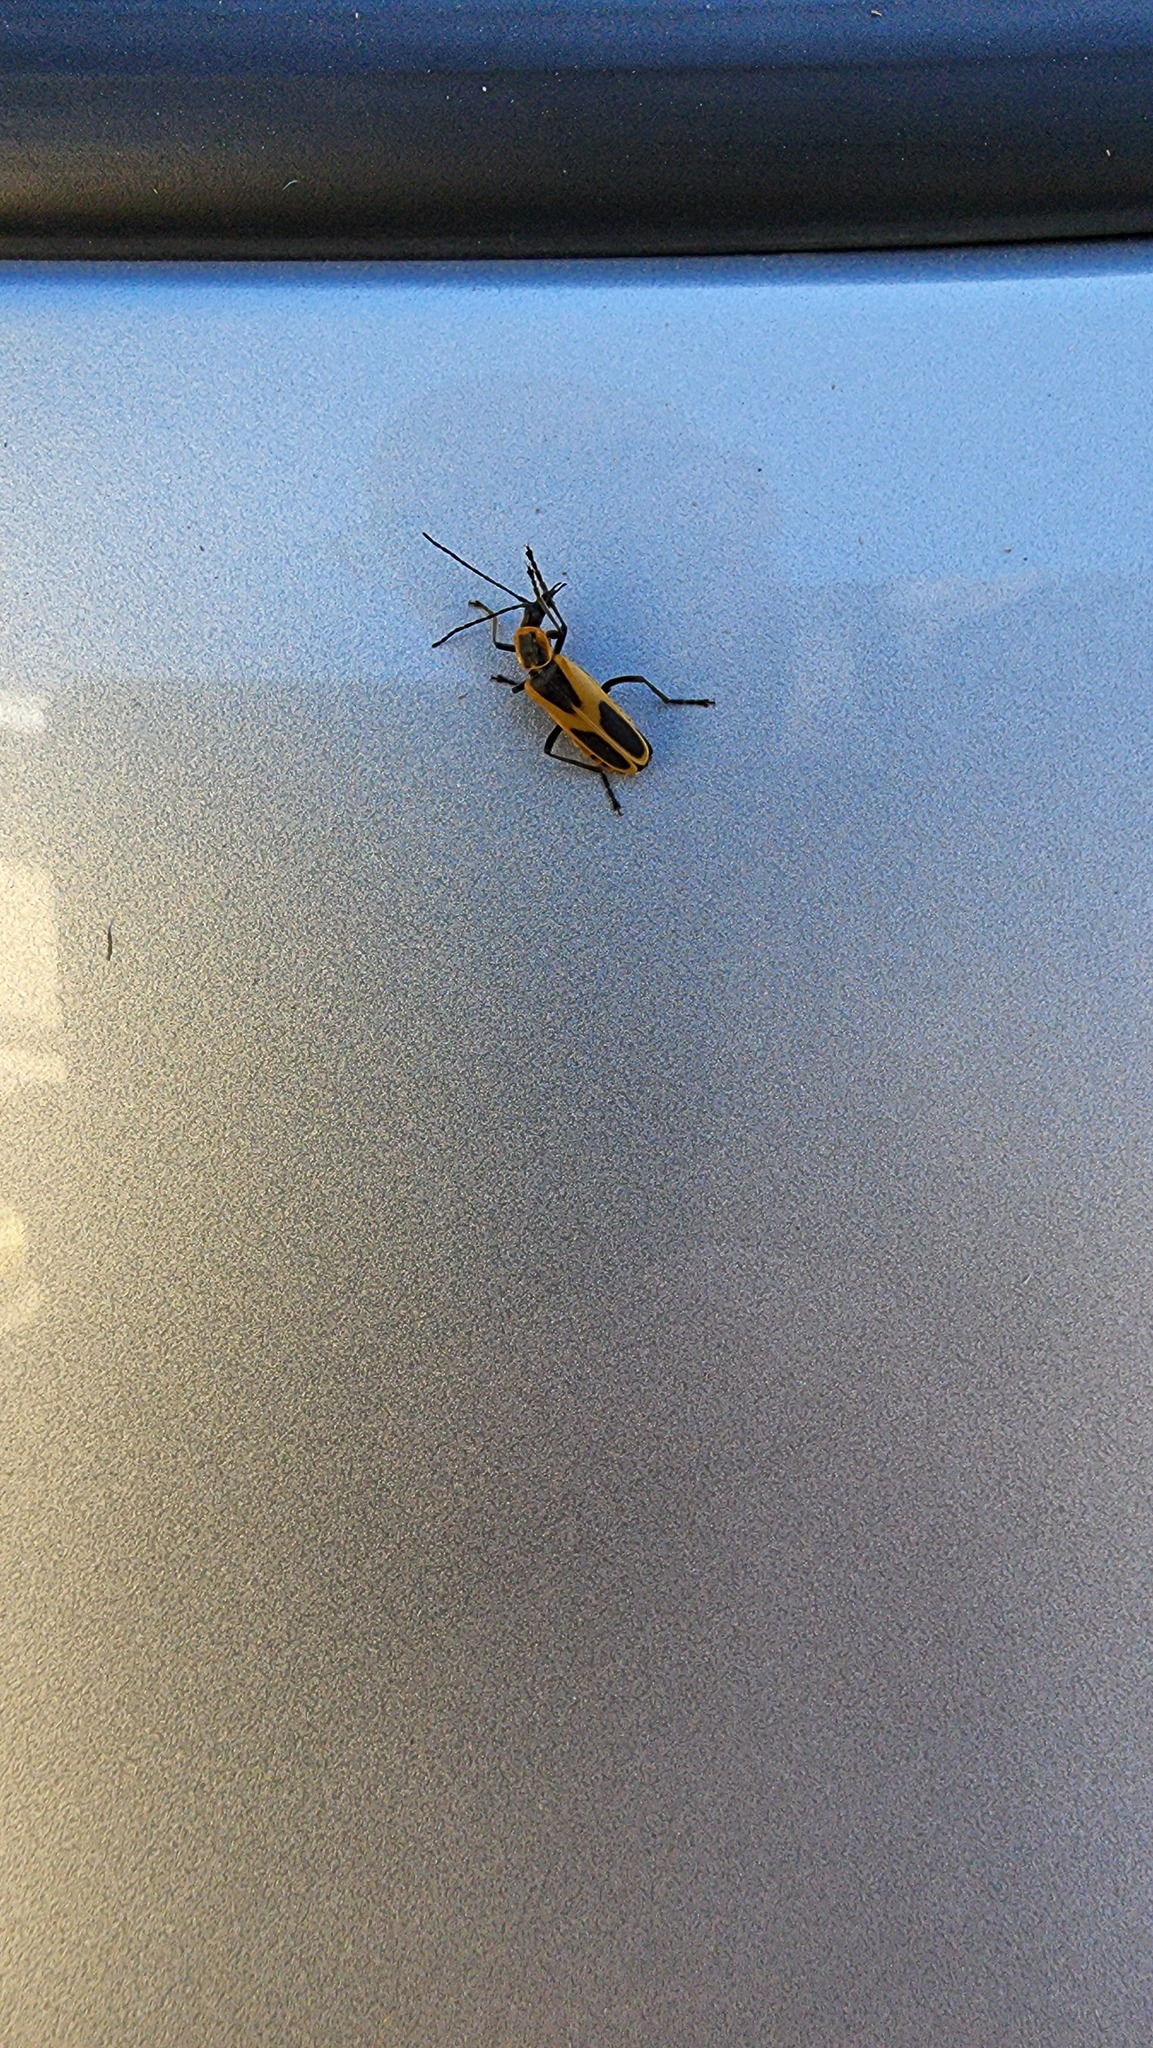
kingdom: Animalia
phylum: Arthropoda
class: Insecta
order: Coleoptera
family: Cantharidae
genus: Chauliognathus
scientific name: Chauliognathus scutellaris
